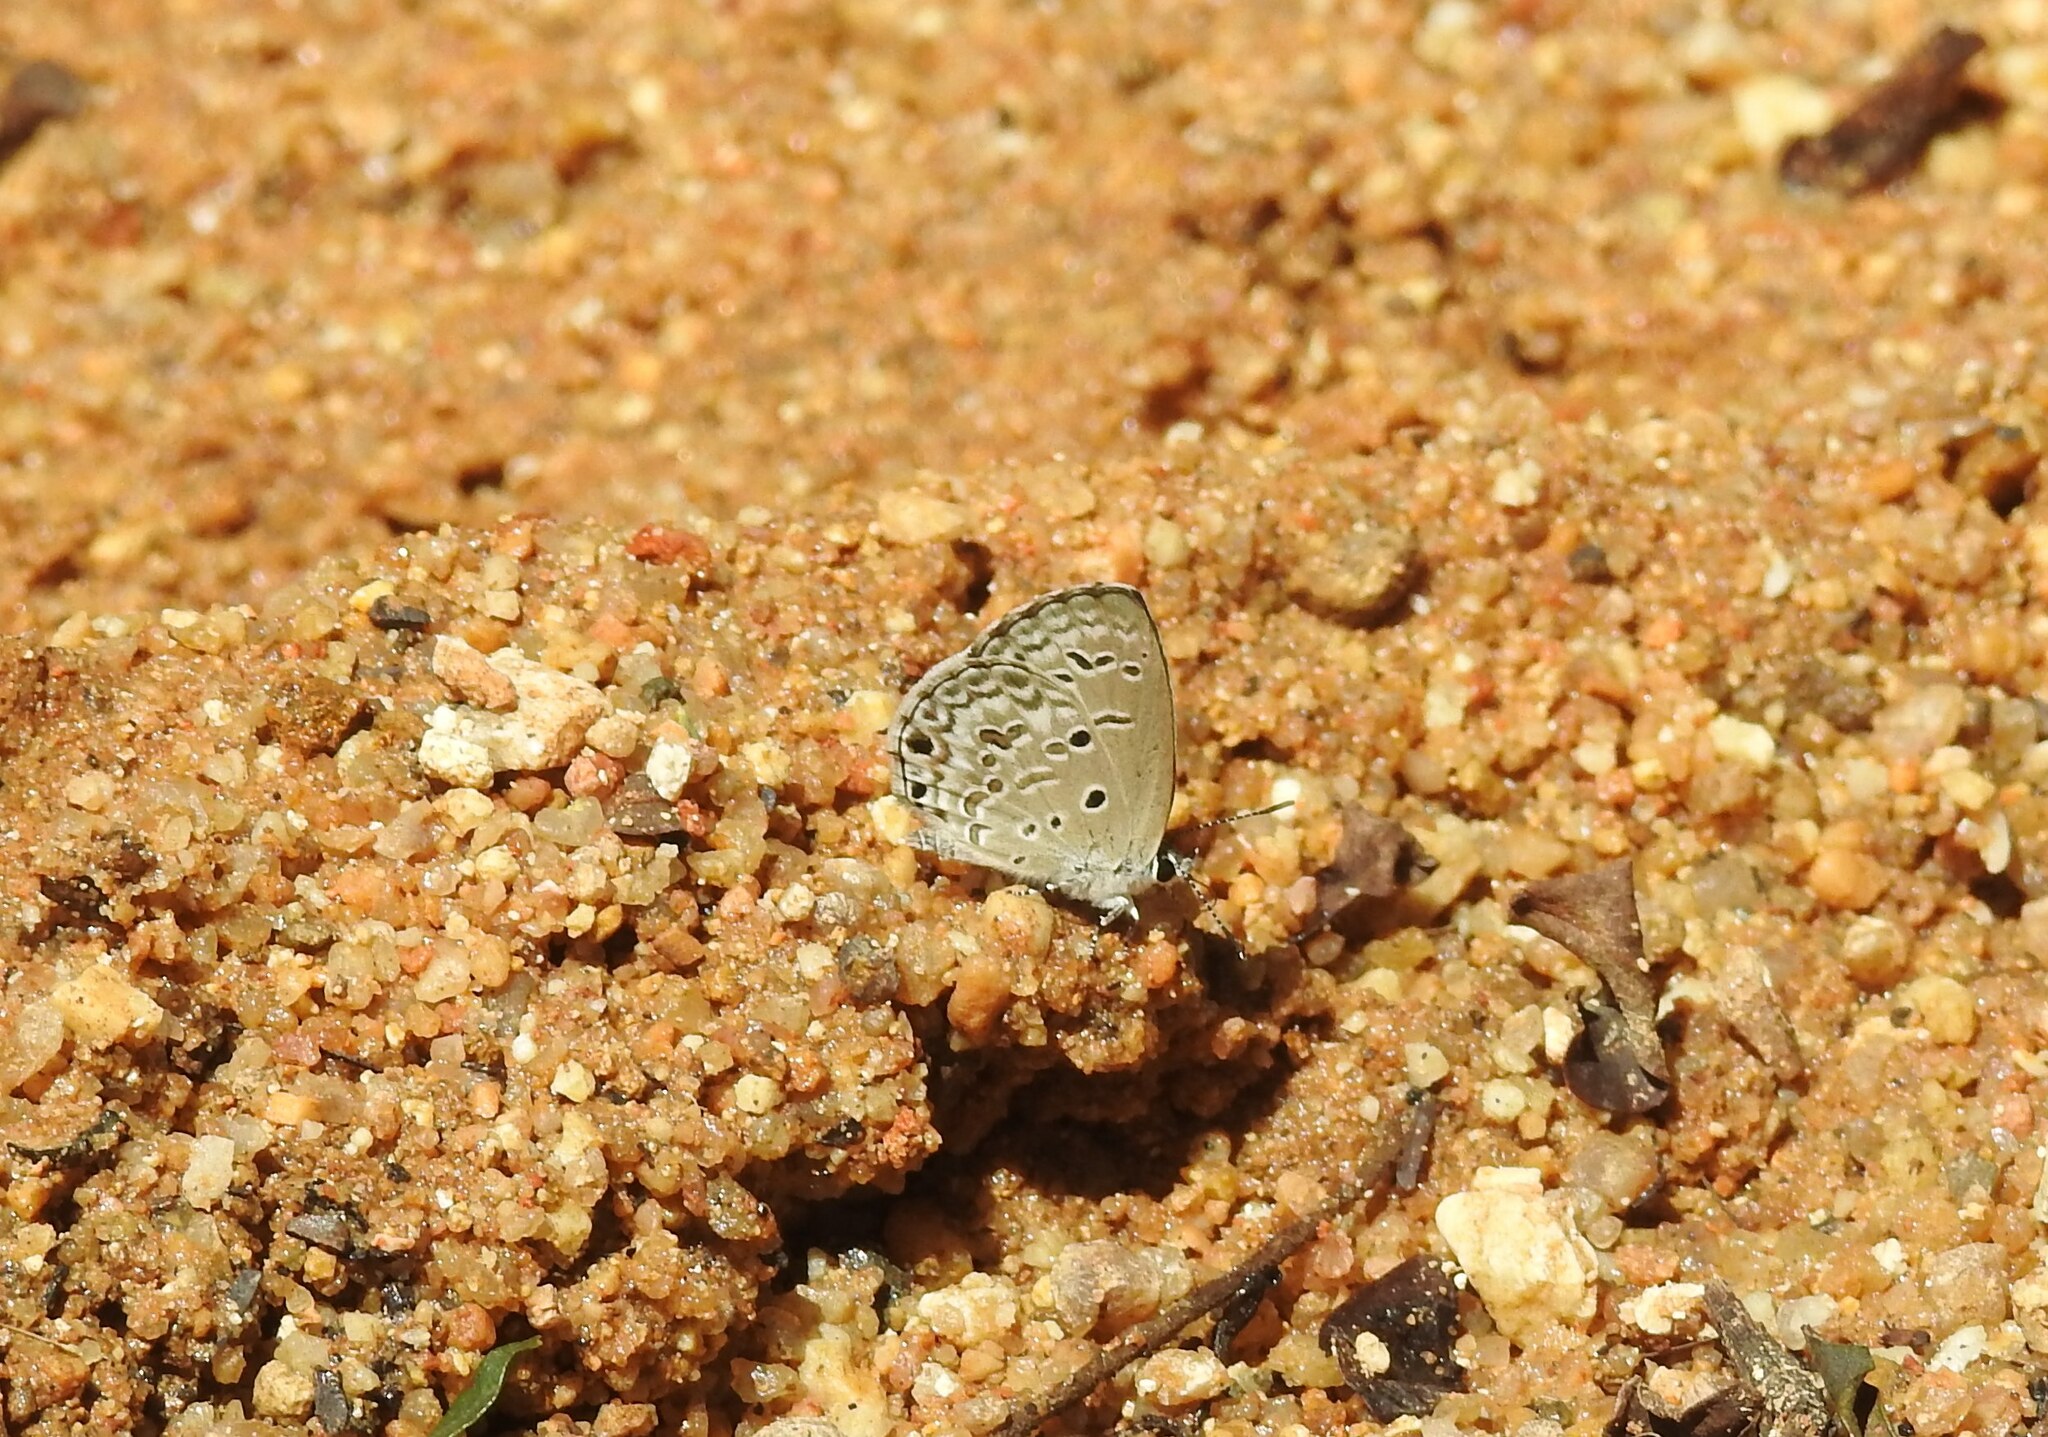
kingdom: Animalia
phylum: Arthropoda
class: Insecta
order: Lepidoptera
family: Lycaenidae
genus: Chilades
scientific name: Chilades laius
